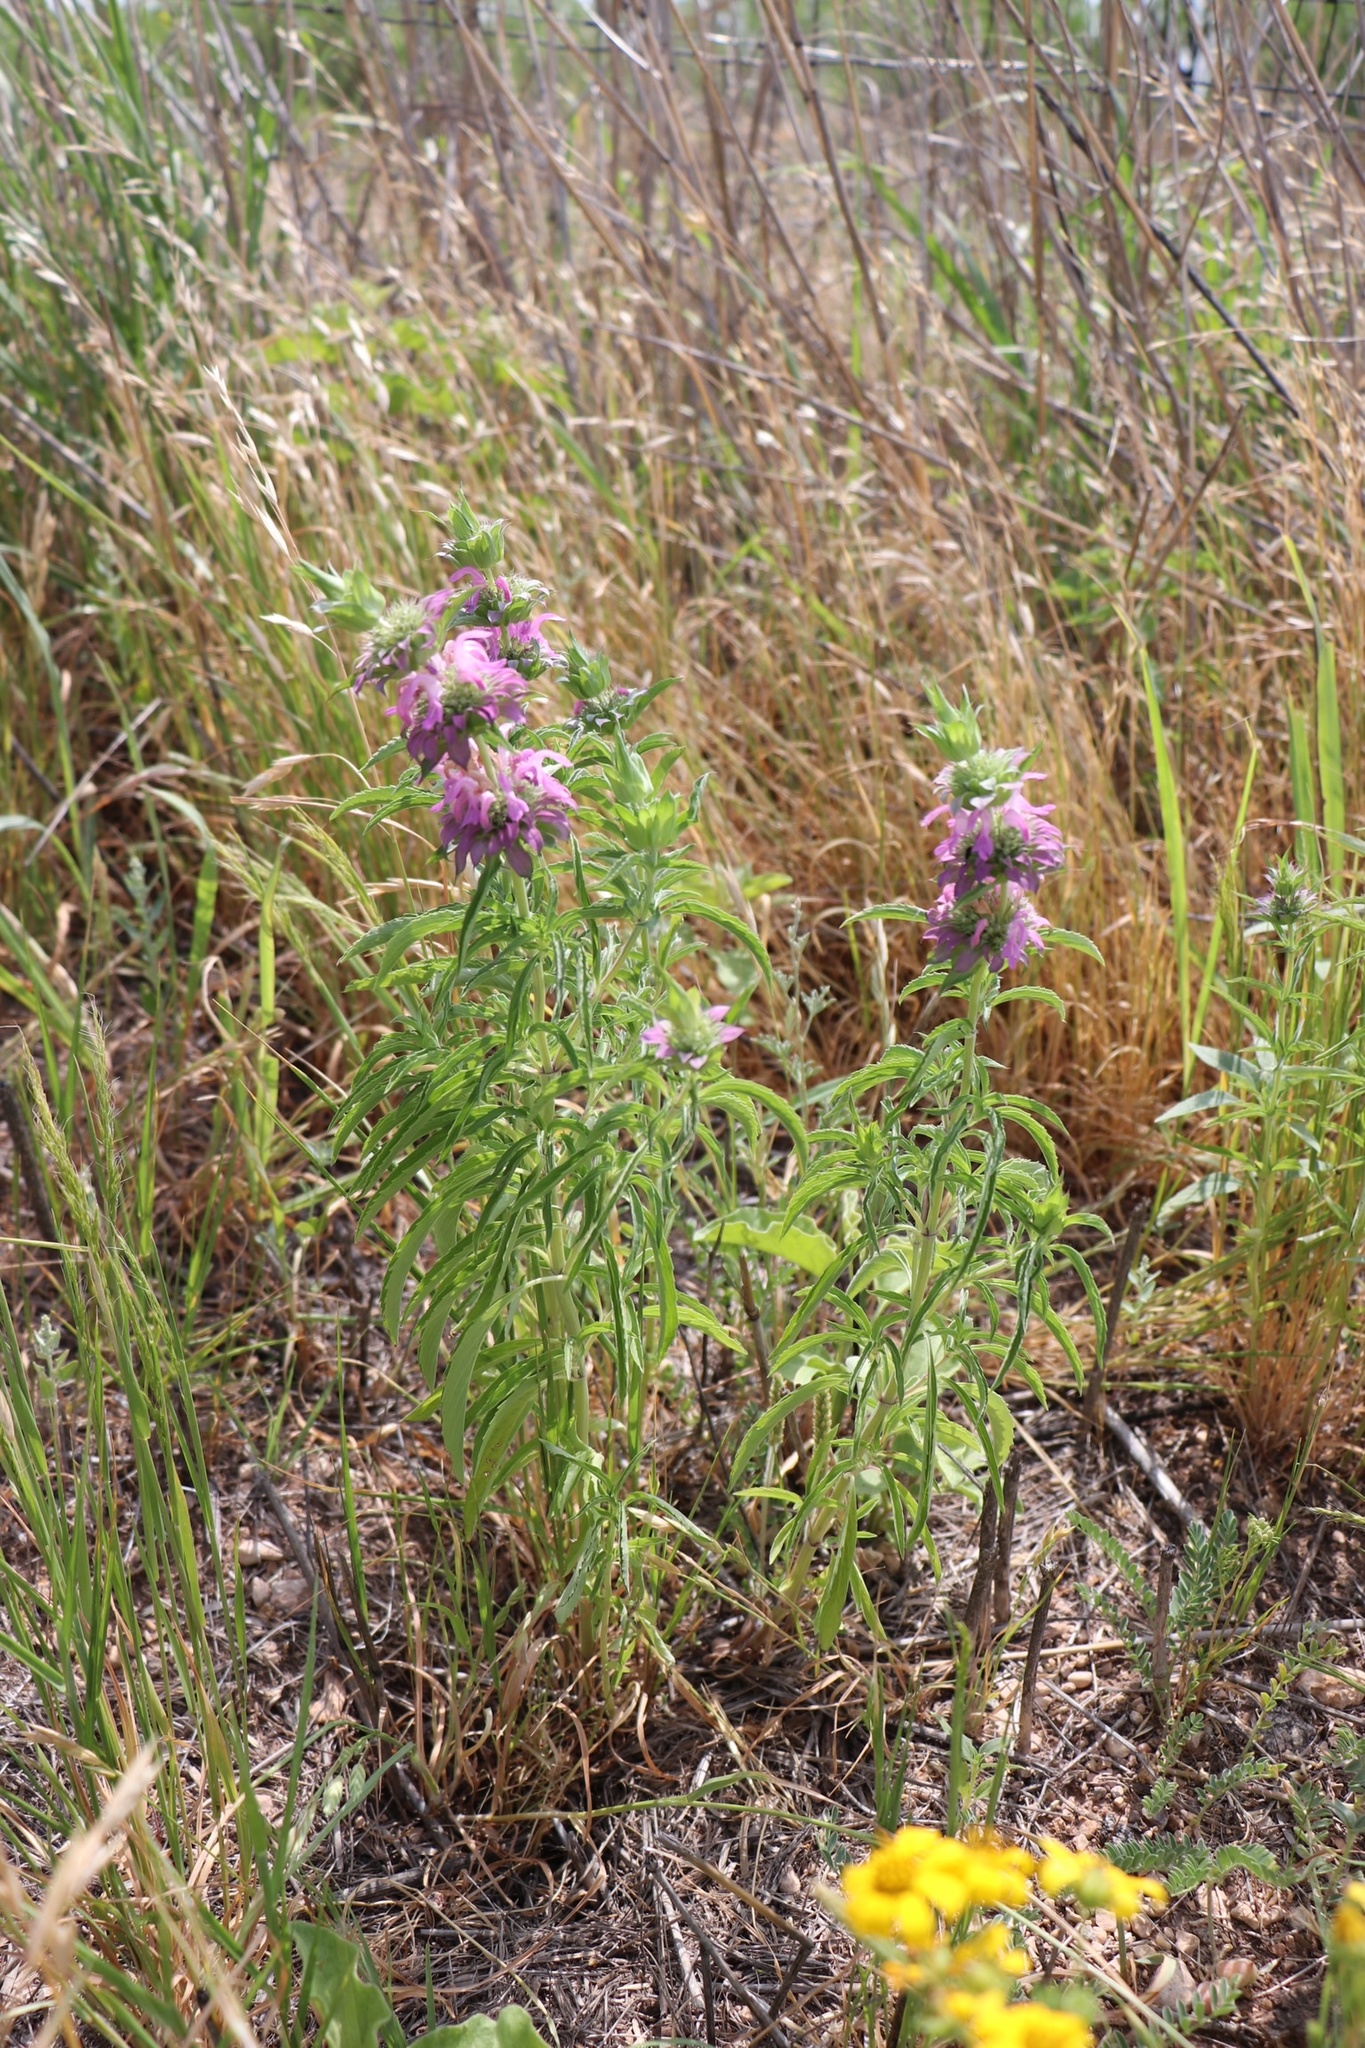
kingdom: Plantae
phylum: Tracheophyta
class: Magnoliopsida
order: Lamiales
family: Lamiaceae
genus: Monarda
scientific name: Monarda citriodora
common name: Lemon beebalm
